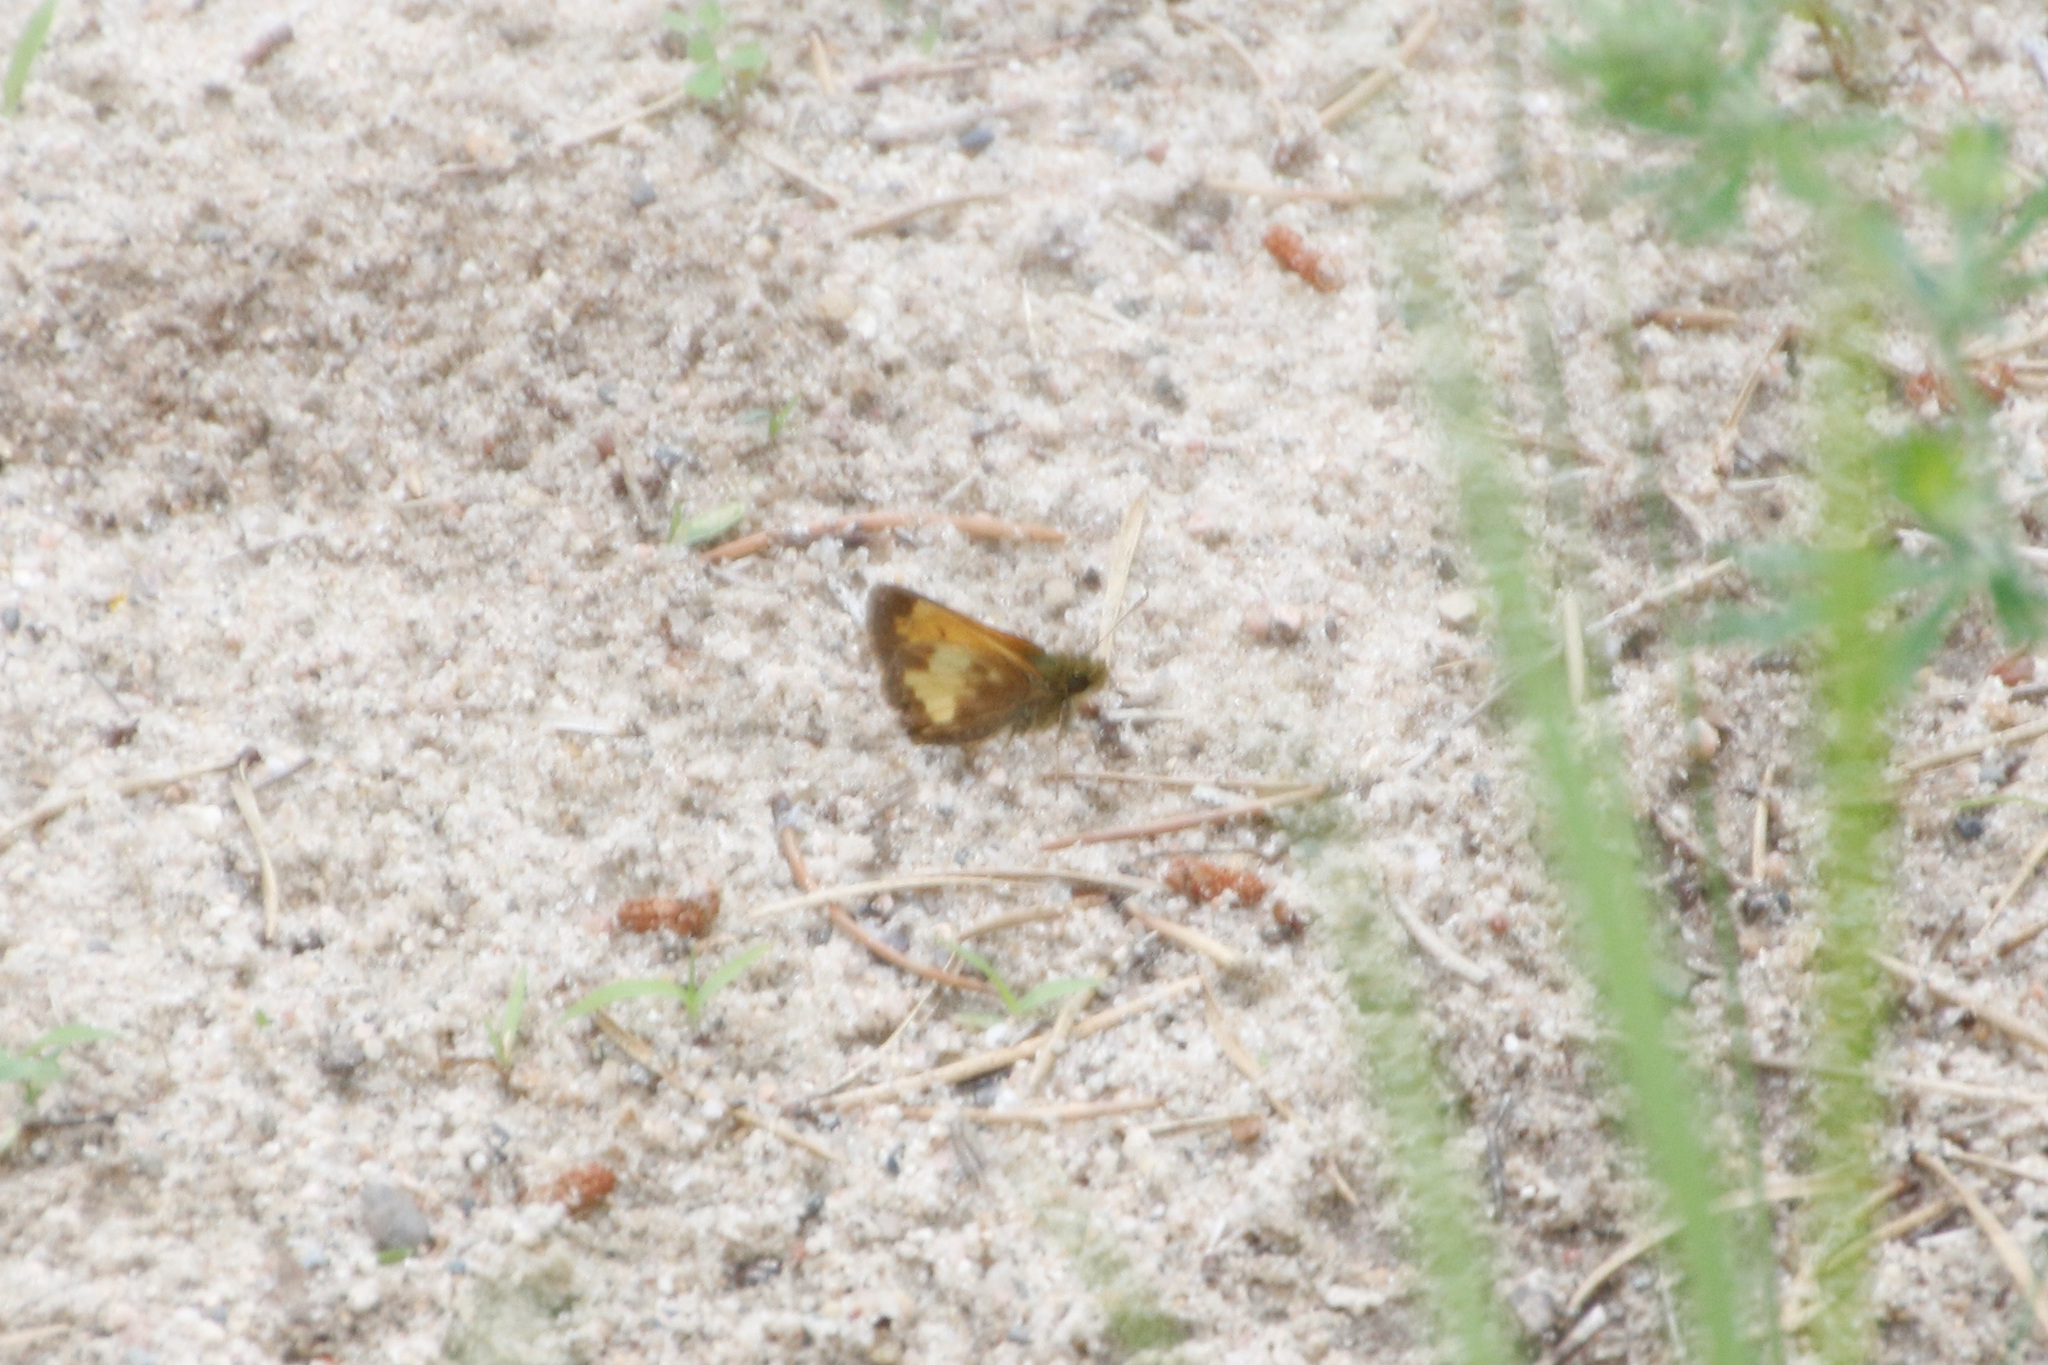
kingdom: Animalia
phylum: Arthropoda
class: Insecta
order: Lepidoptera
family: Hesperiidae
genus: Lon
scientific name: Lon hobomok
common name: Hobomok skipper
